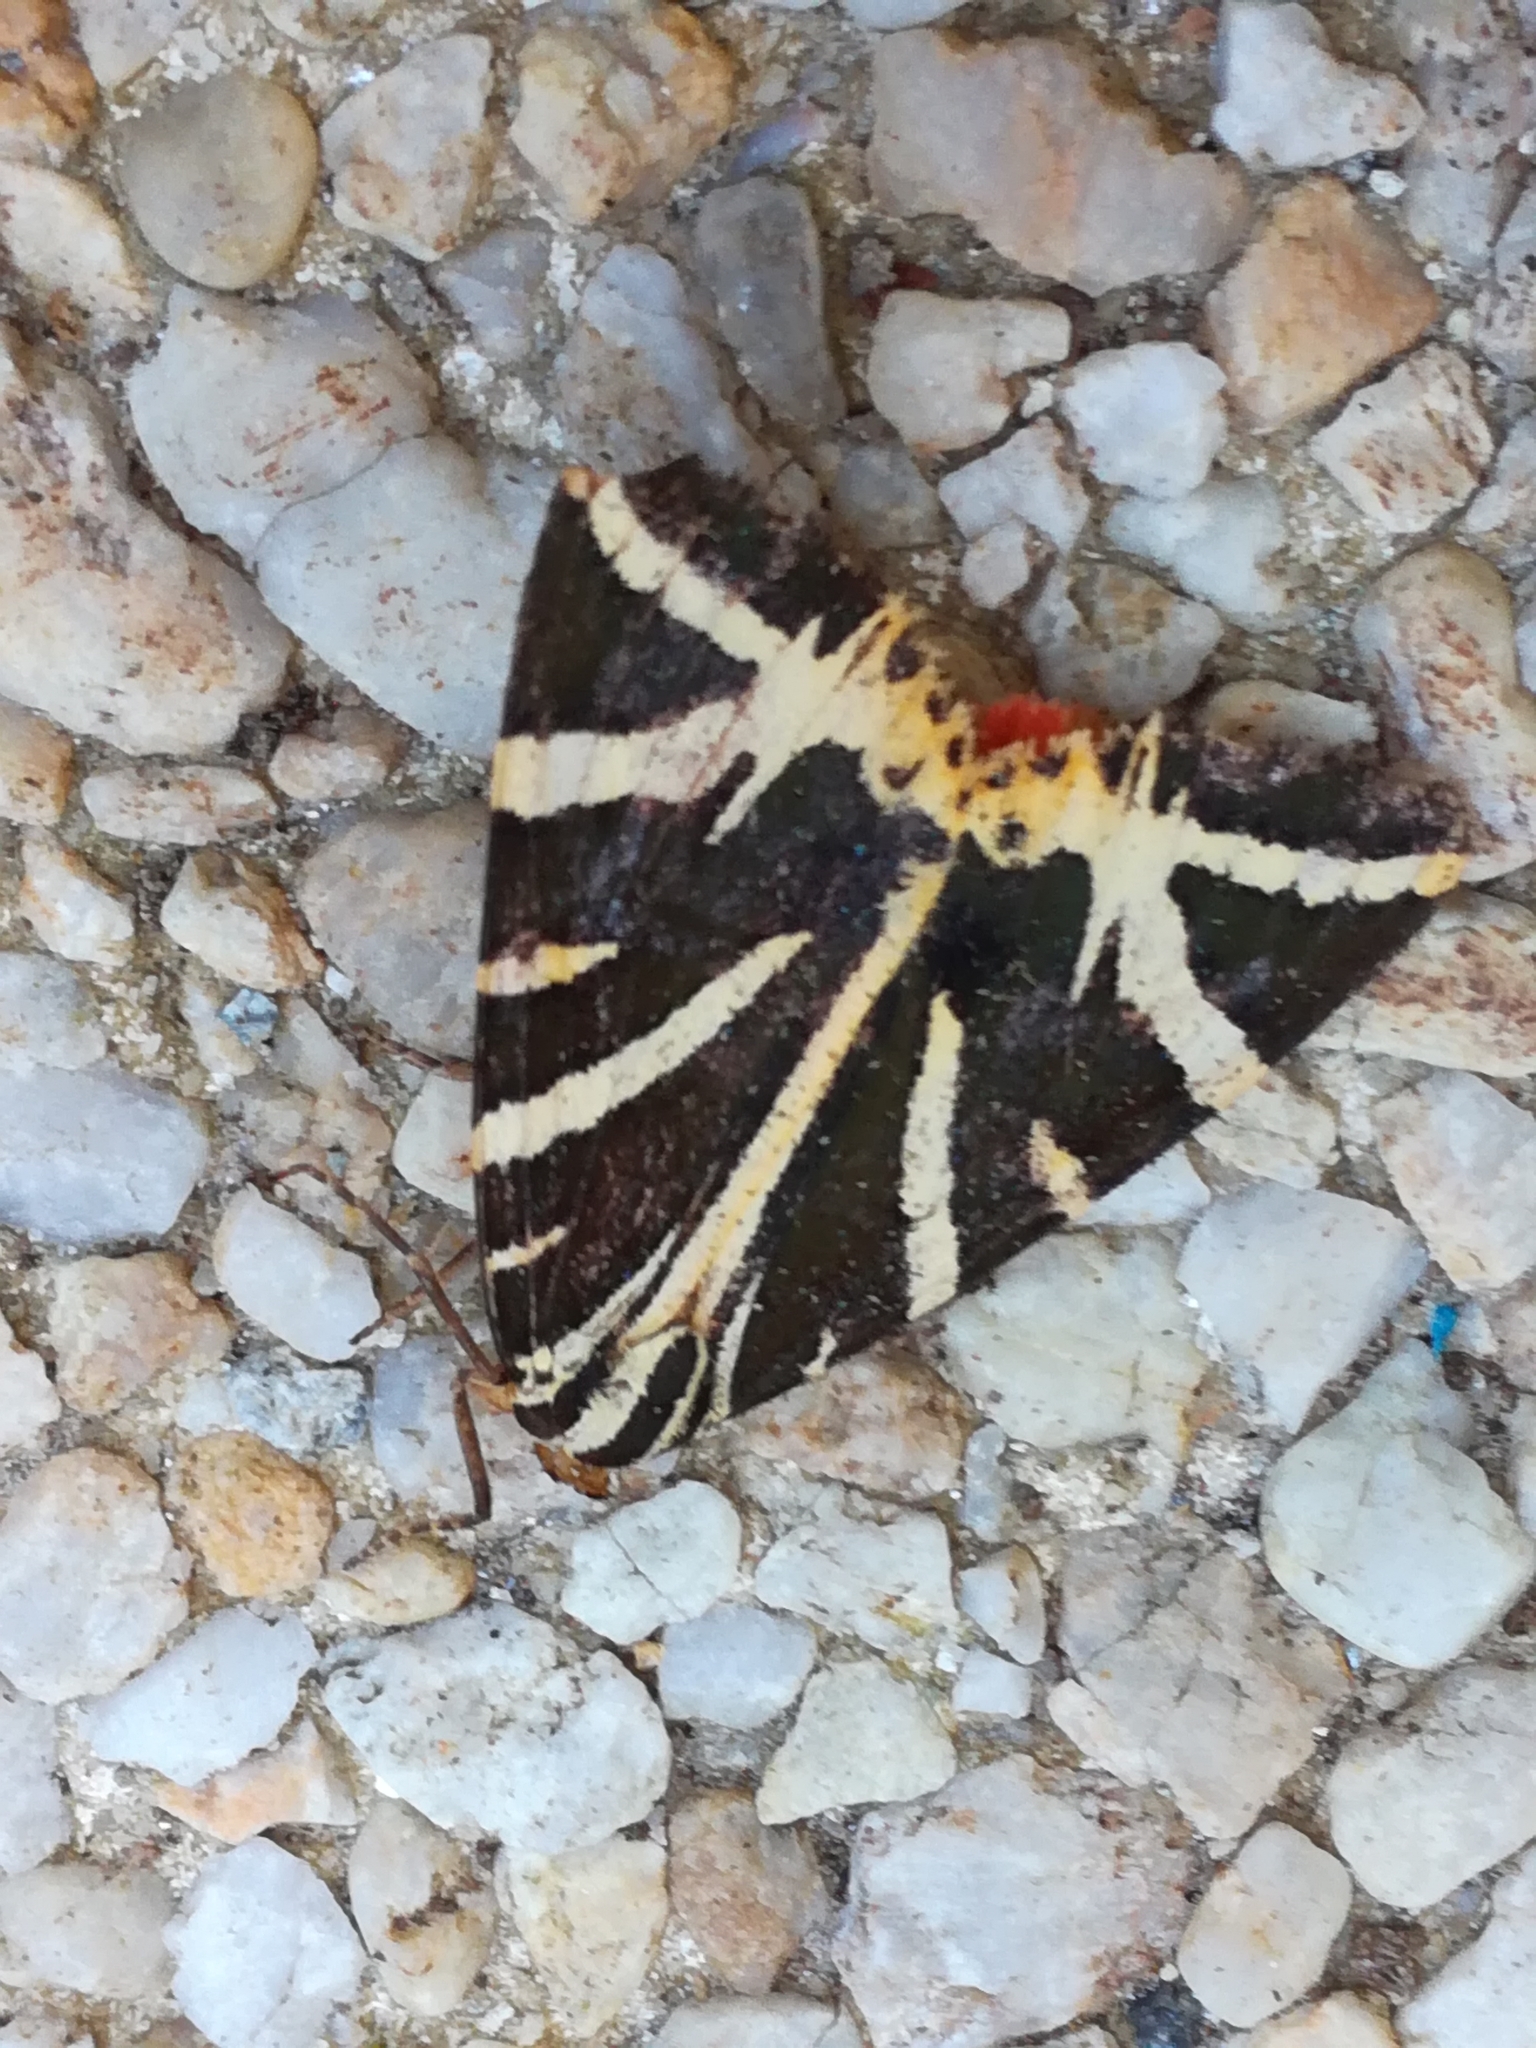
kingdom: Animalia
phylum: Arthropoda
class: Insecta
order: Lepidoptera
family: Erebidae
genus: Euplagia
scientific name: Euplagia quadripunctaria
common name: Jersey tiger
